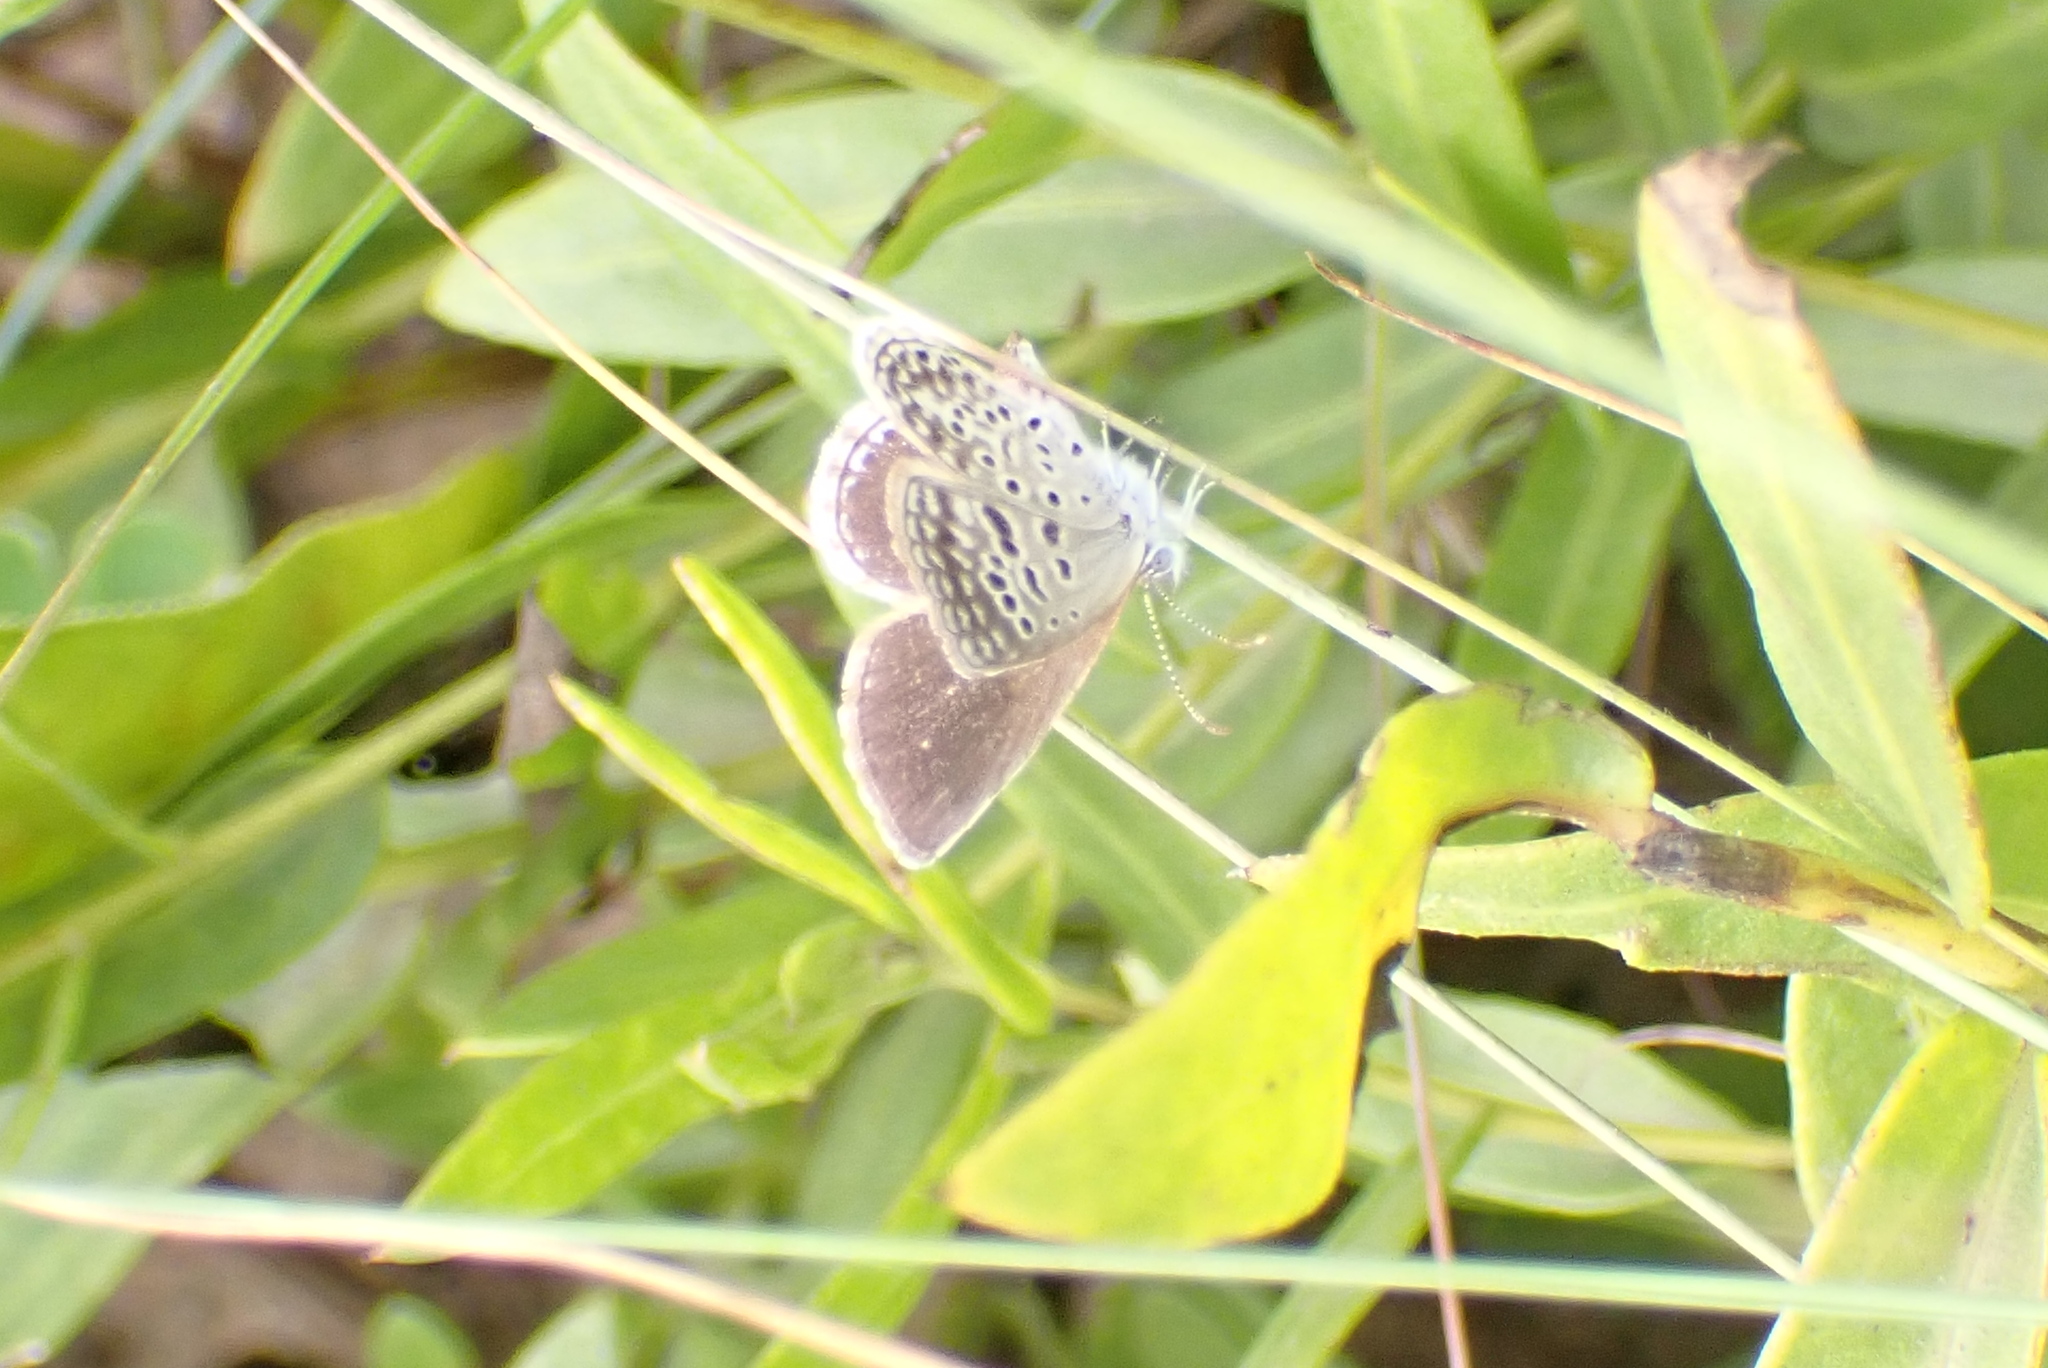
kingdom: Animalia
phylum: Arthropoda
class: Insecta
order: Lepidoptera
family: Lycaenidae
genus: Actizera
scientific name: Actizera lucida
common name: Rayed blue
